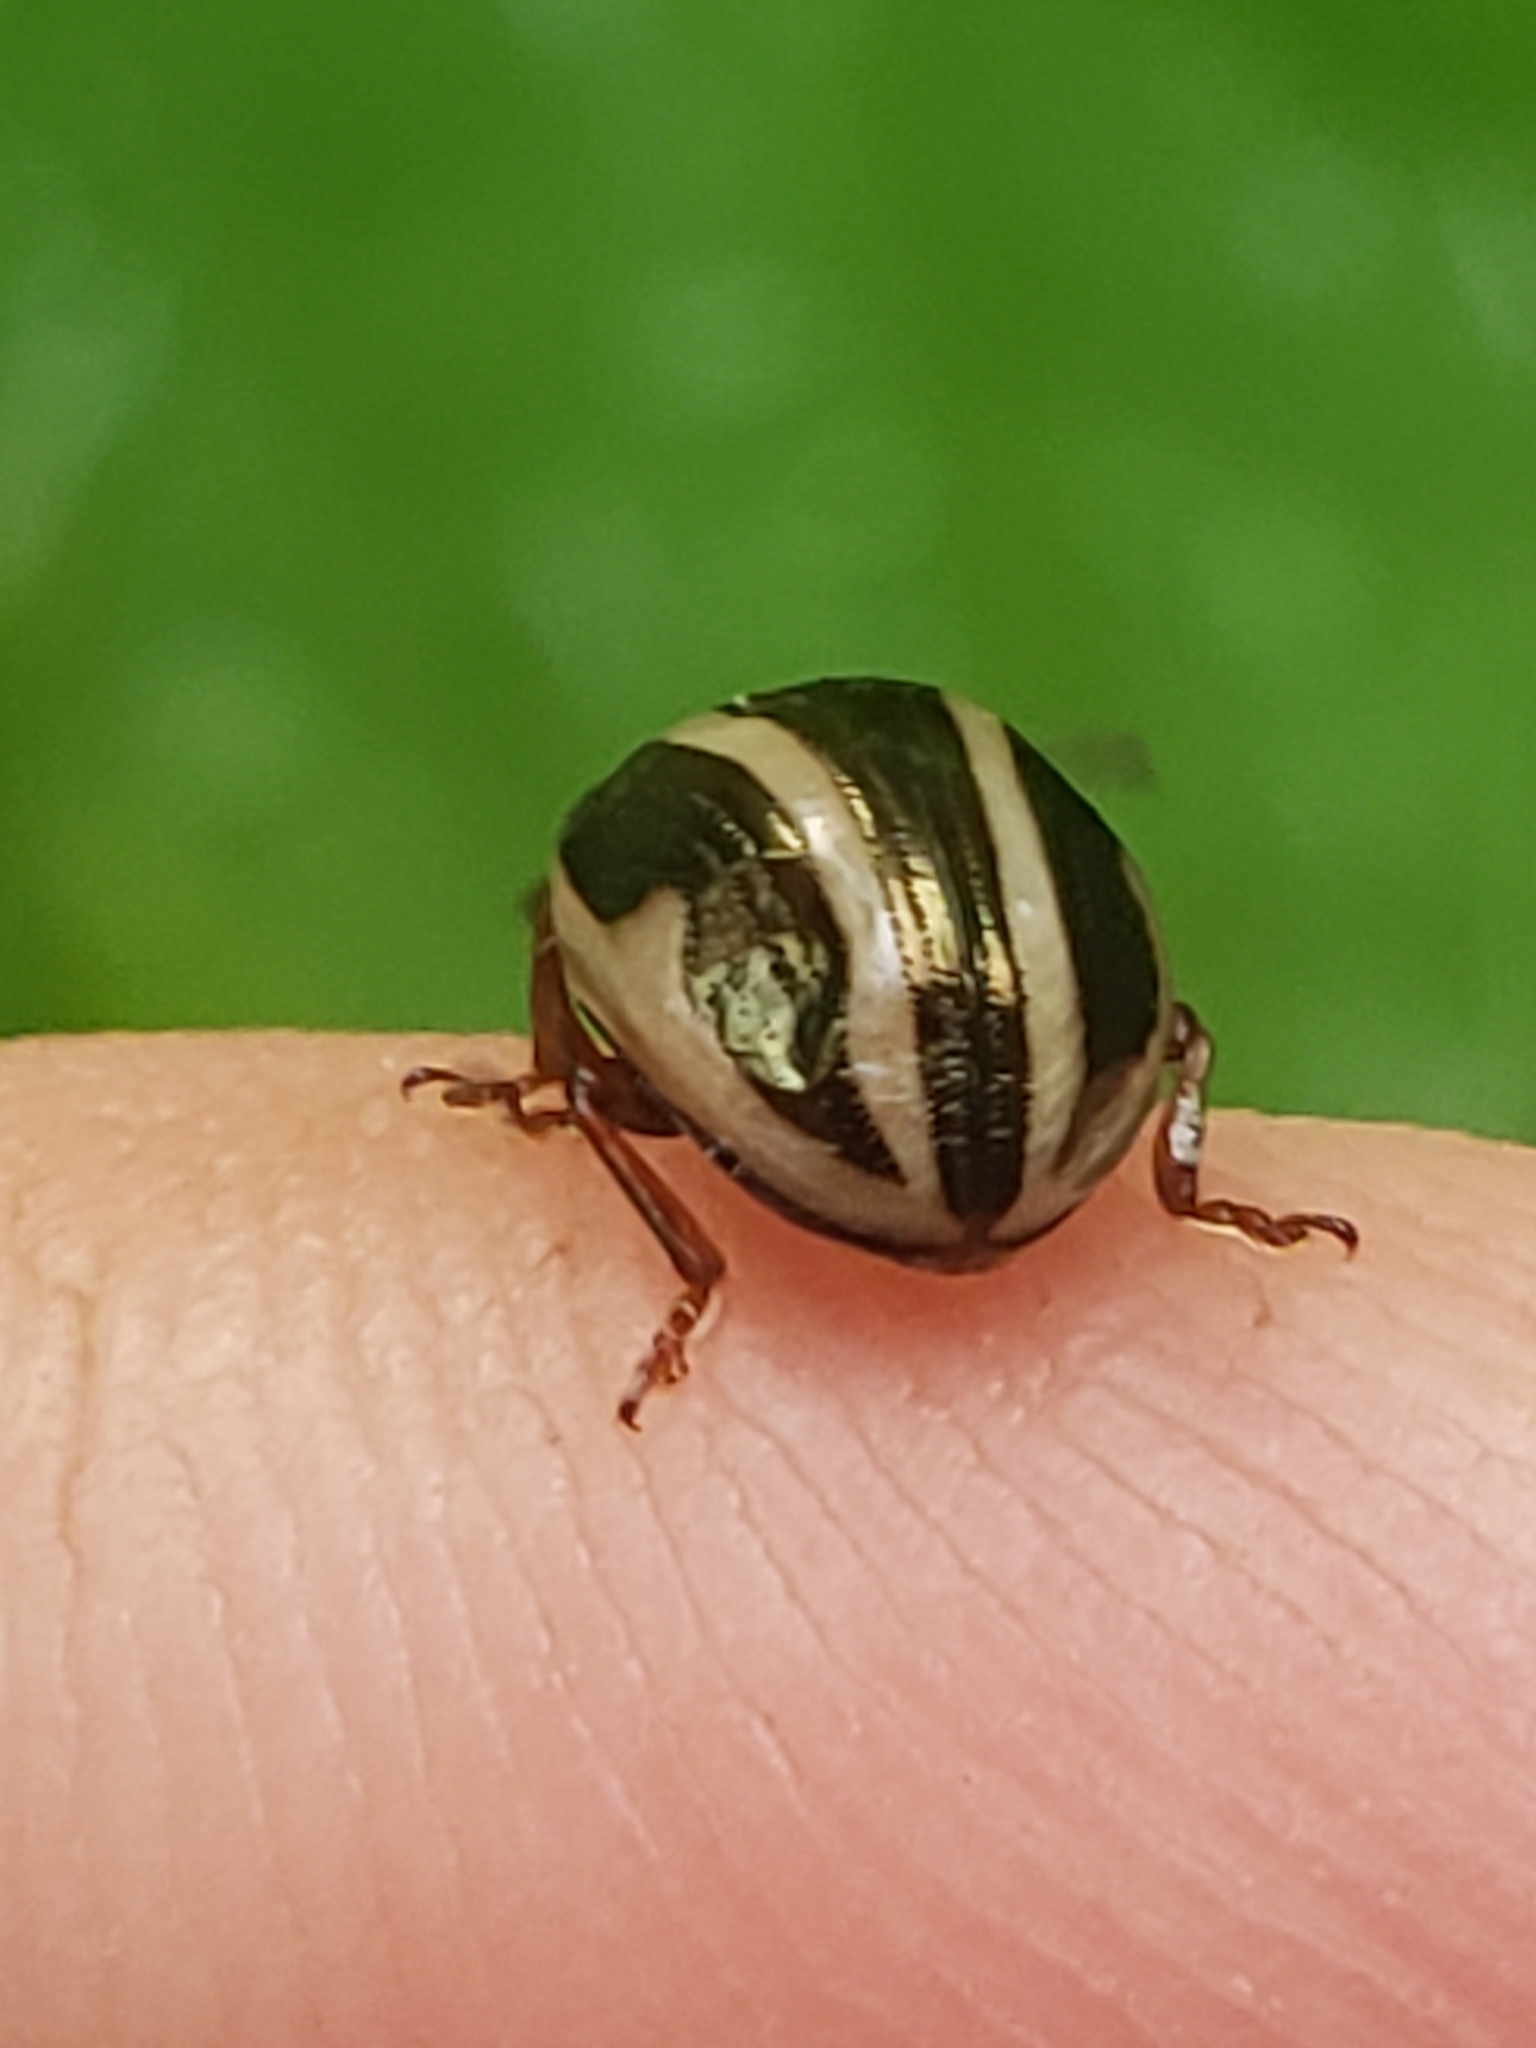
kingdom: Animalia
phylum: Arthropoda
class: Insecta
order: Coleoptera
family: Chrysomelidae
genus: Calligrapha
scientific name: Calligrapha
